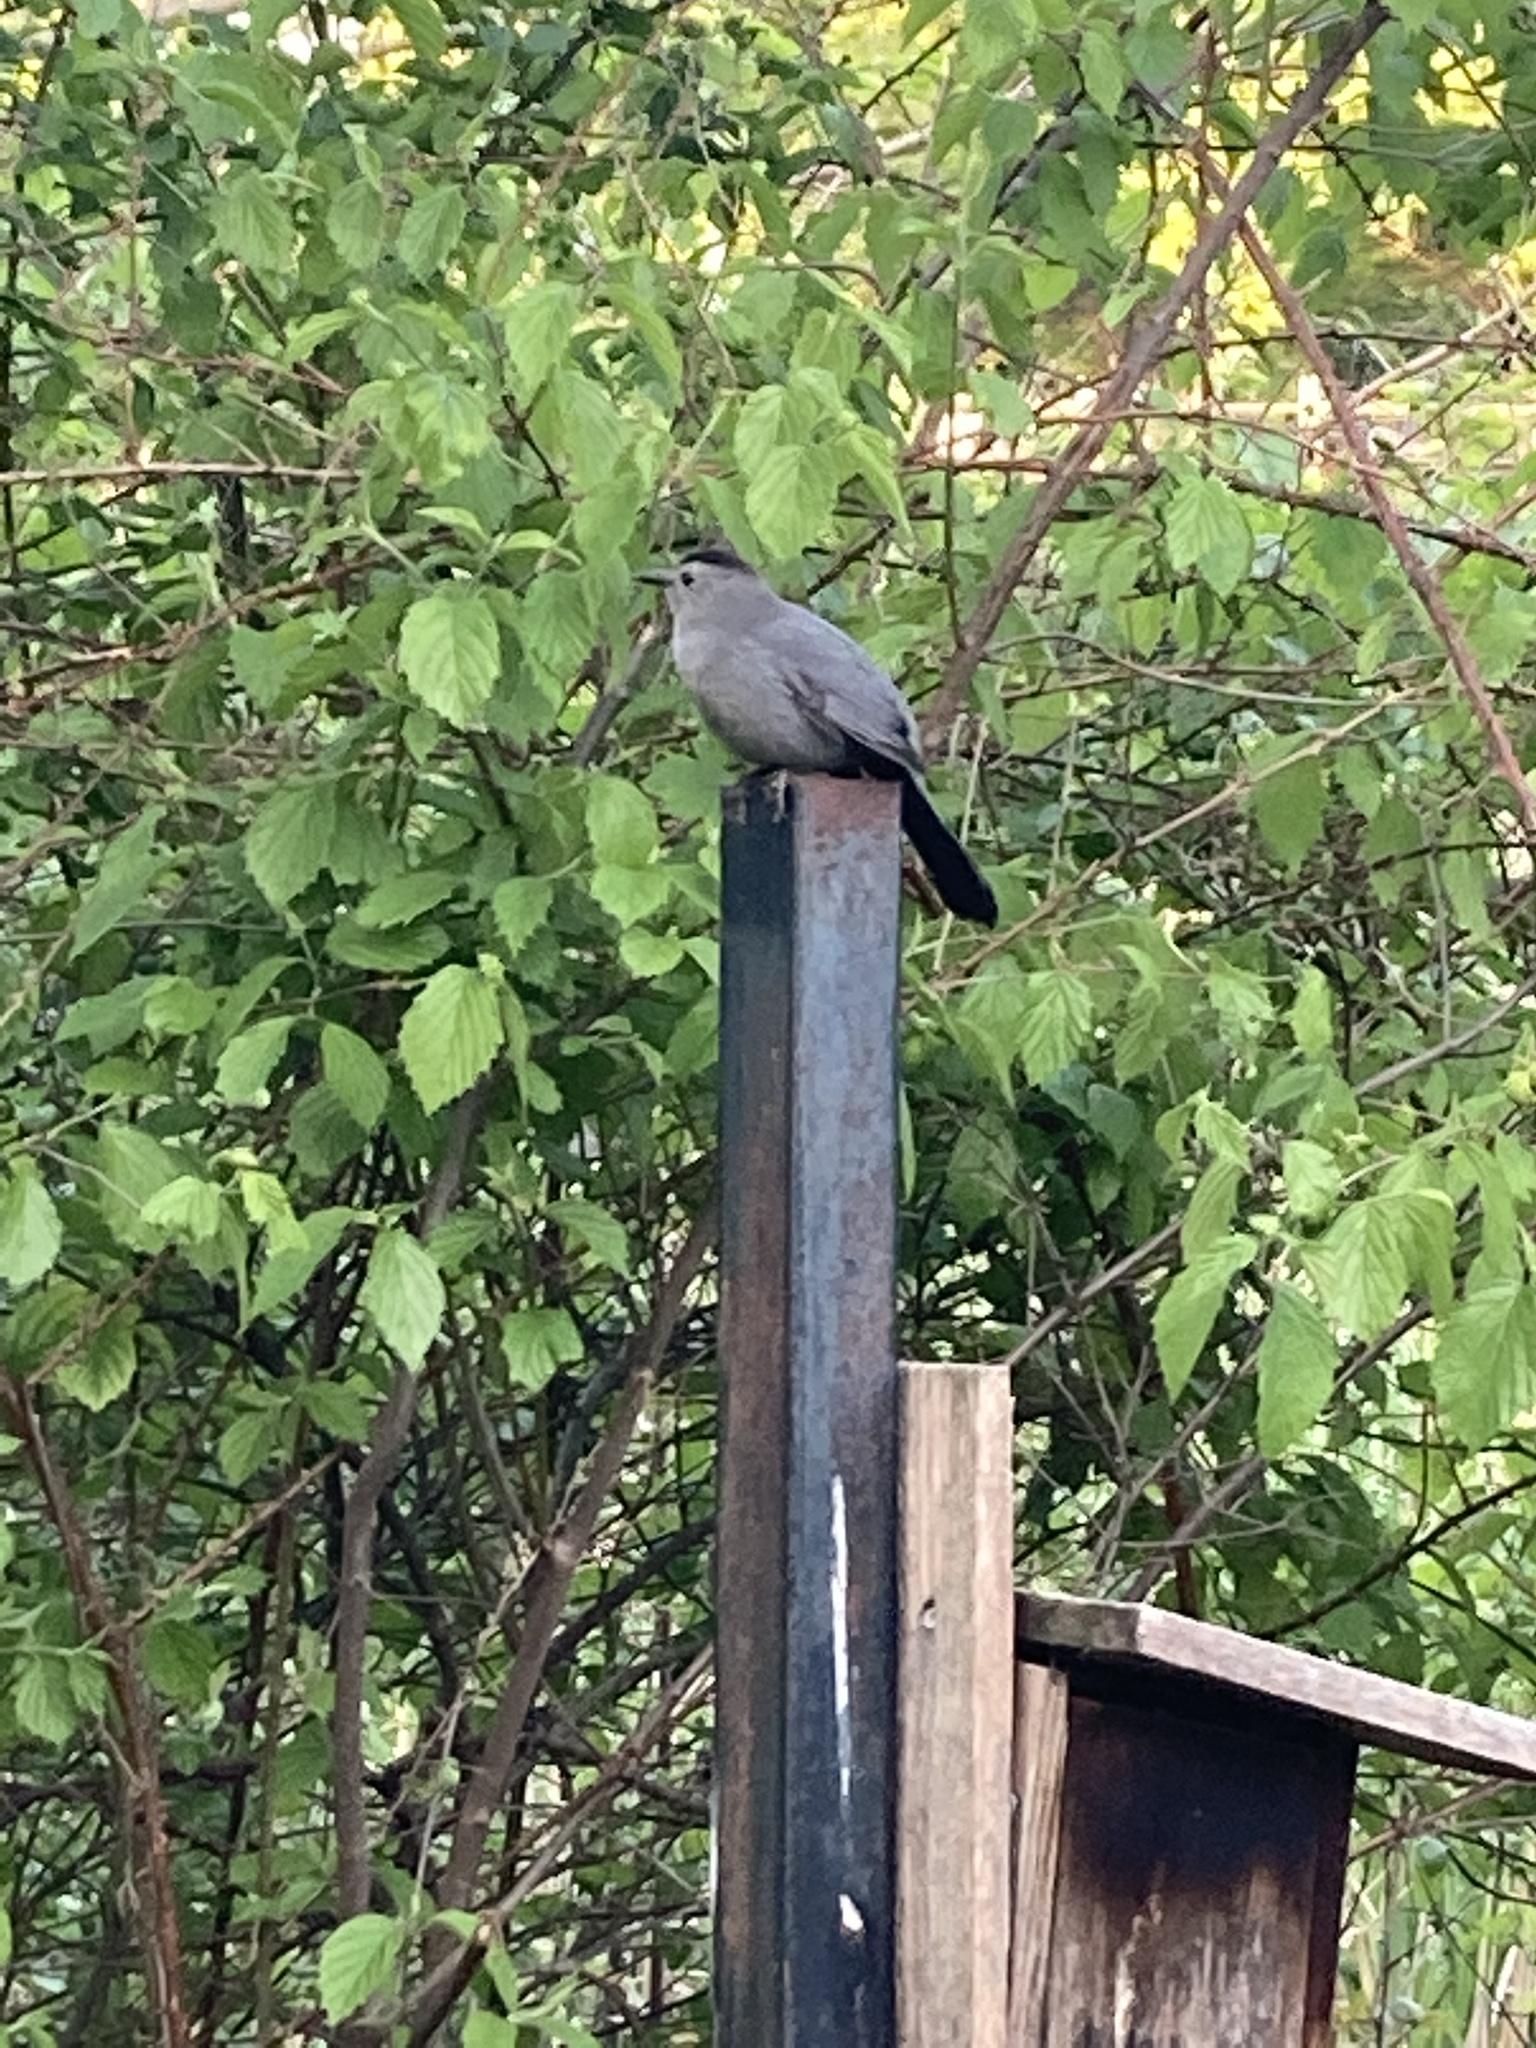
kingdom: Animalia
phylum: Chordata
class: Aves
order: Passeriformes
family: Mimidae
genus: Dumetella
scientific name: Dumetella carolinensis
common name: Gray catbird
